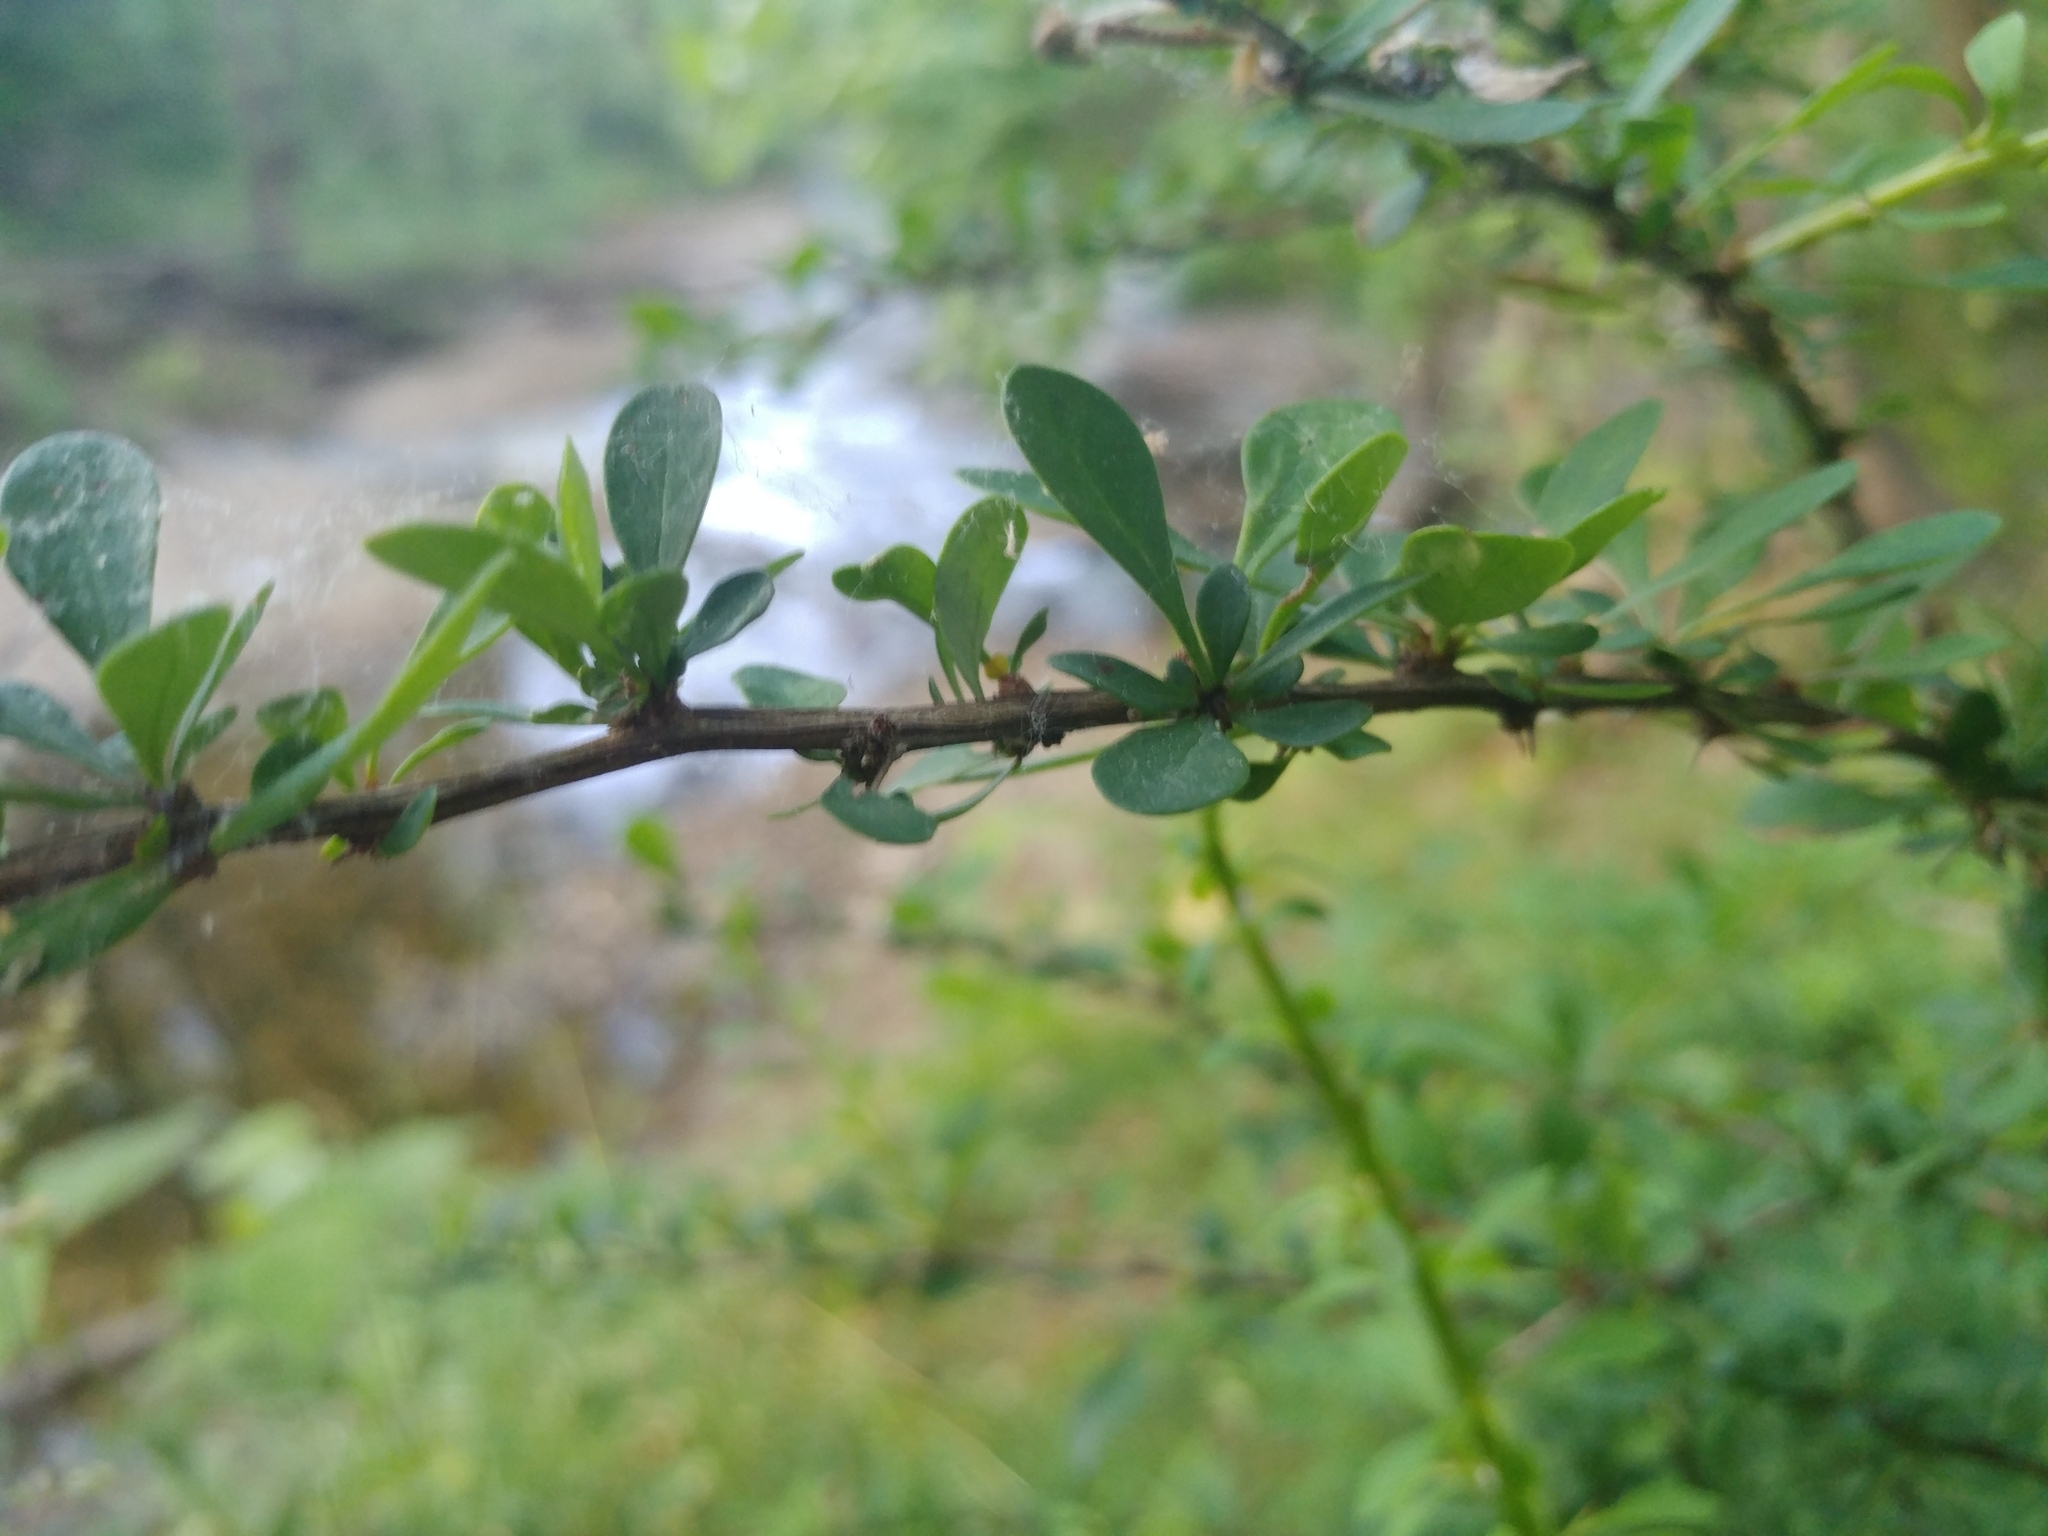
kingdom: Plantae
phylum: Tracheophyta
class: Magnoliopsida
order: Ranunculales
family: Berberidaceae
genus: Berberis
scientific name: Berberis thunbergii
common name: Japanese barberry
